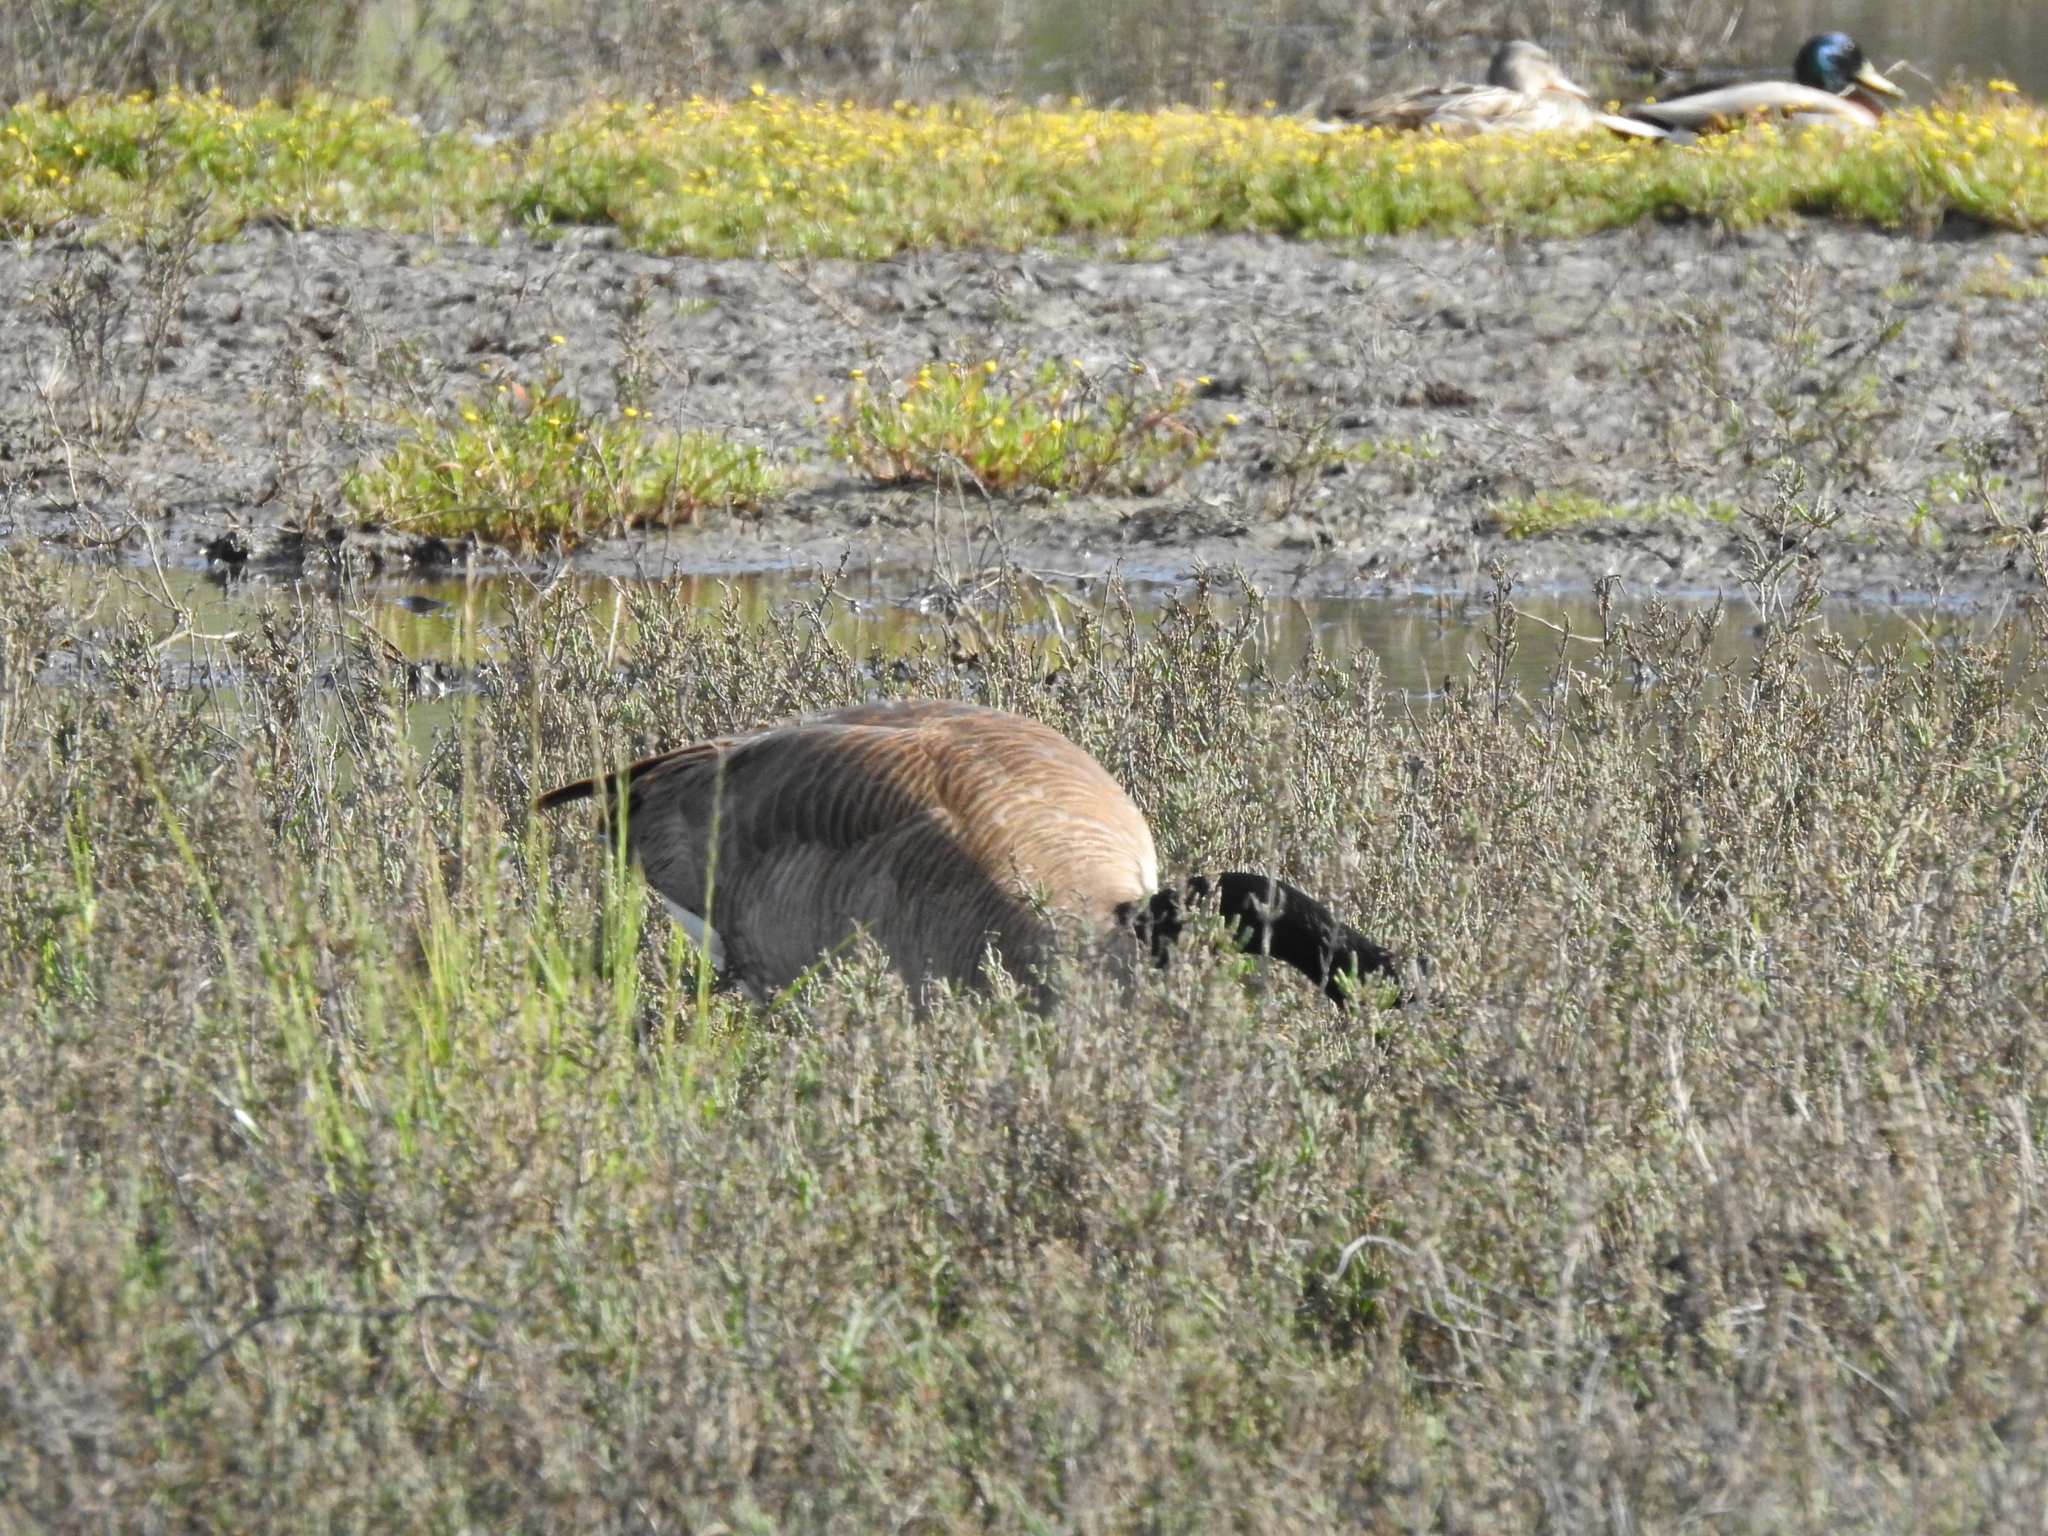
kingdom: Animalia
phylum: Chordata
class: Aves
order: Anseriformes
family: Anatidae
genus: Branta
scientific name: Branta canadensis
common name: Canada goose
